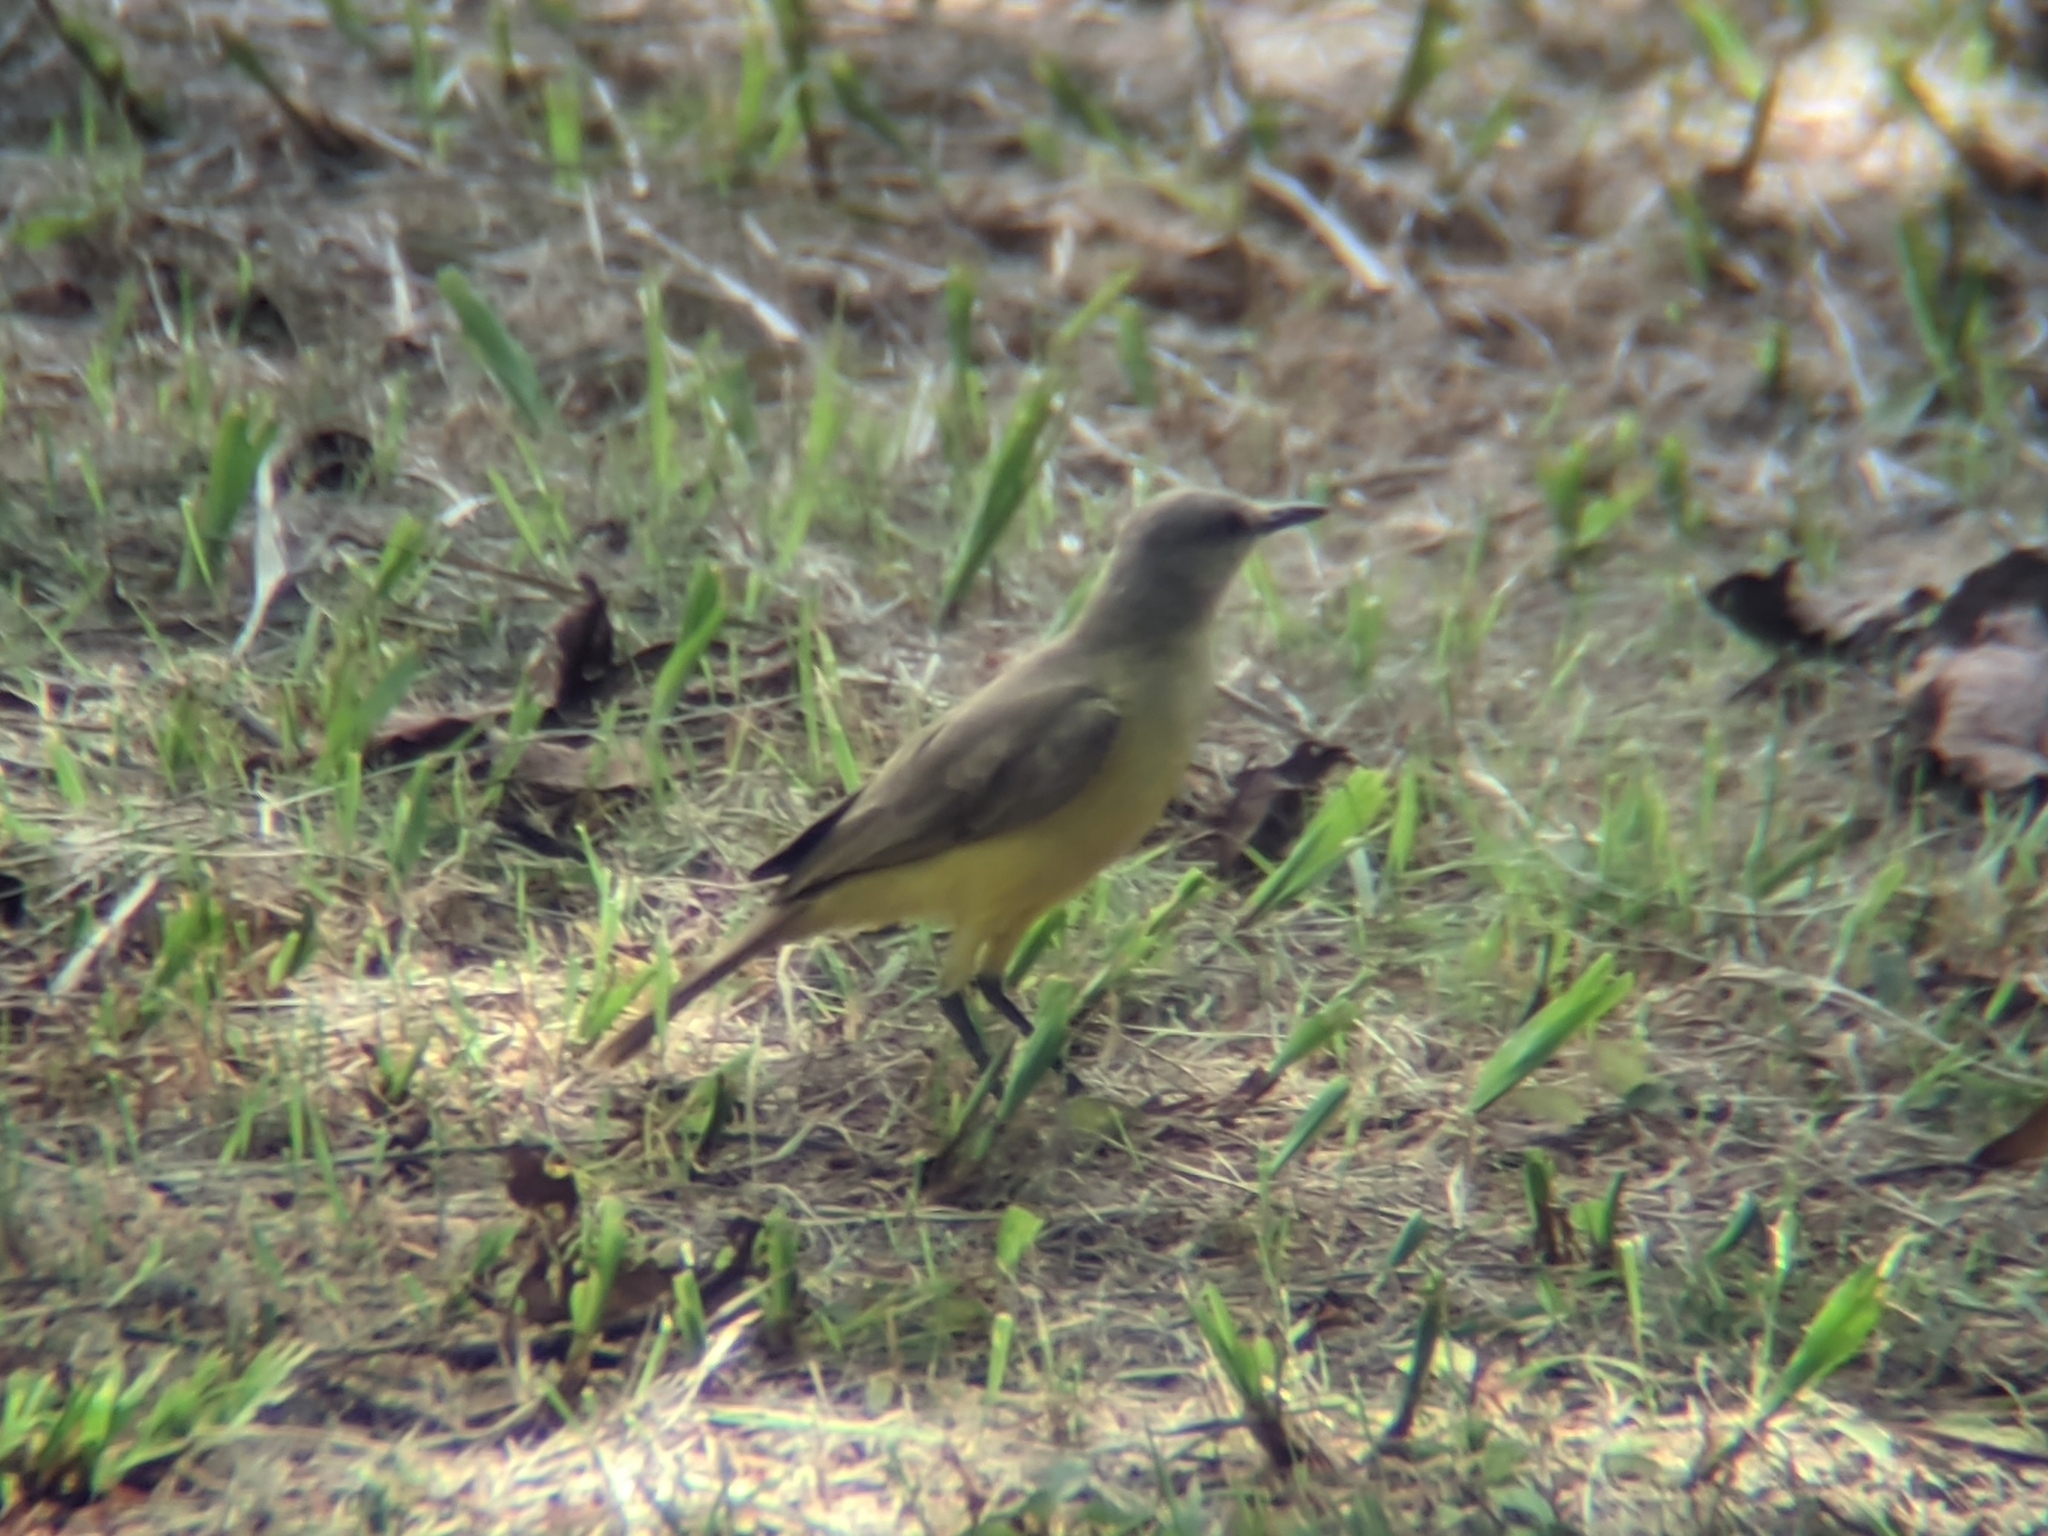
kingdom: Animalia
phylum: Chordata
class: Aves
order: Passeriformes
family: Tyrannidae
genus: Machetornis
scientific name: Machetornis rixosa
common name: Cattle tyrant
